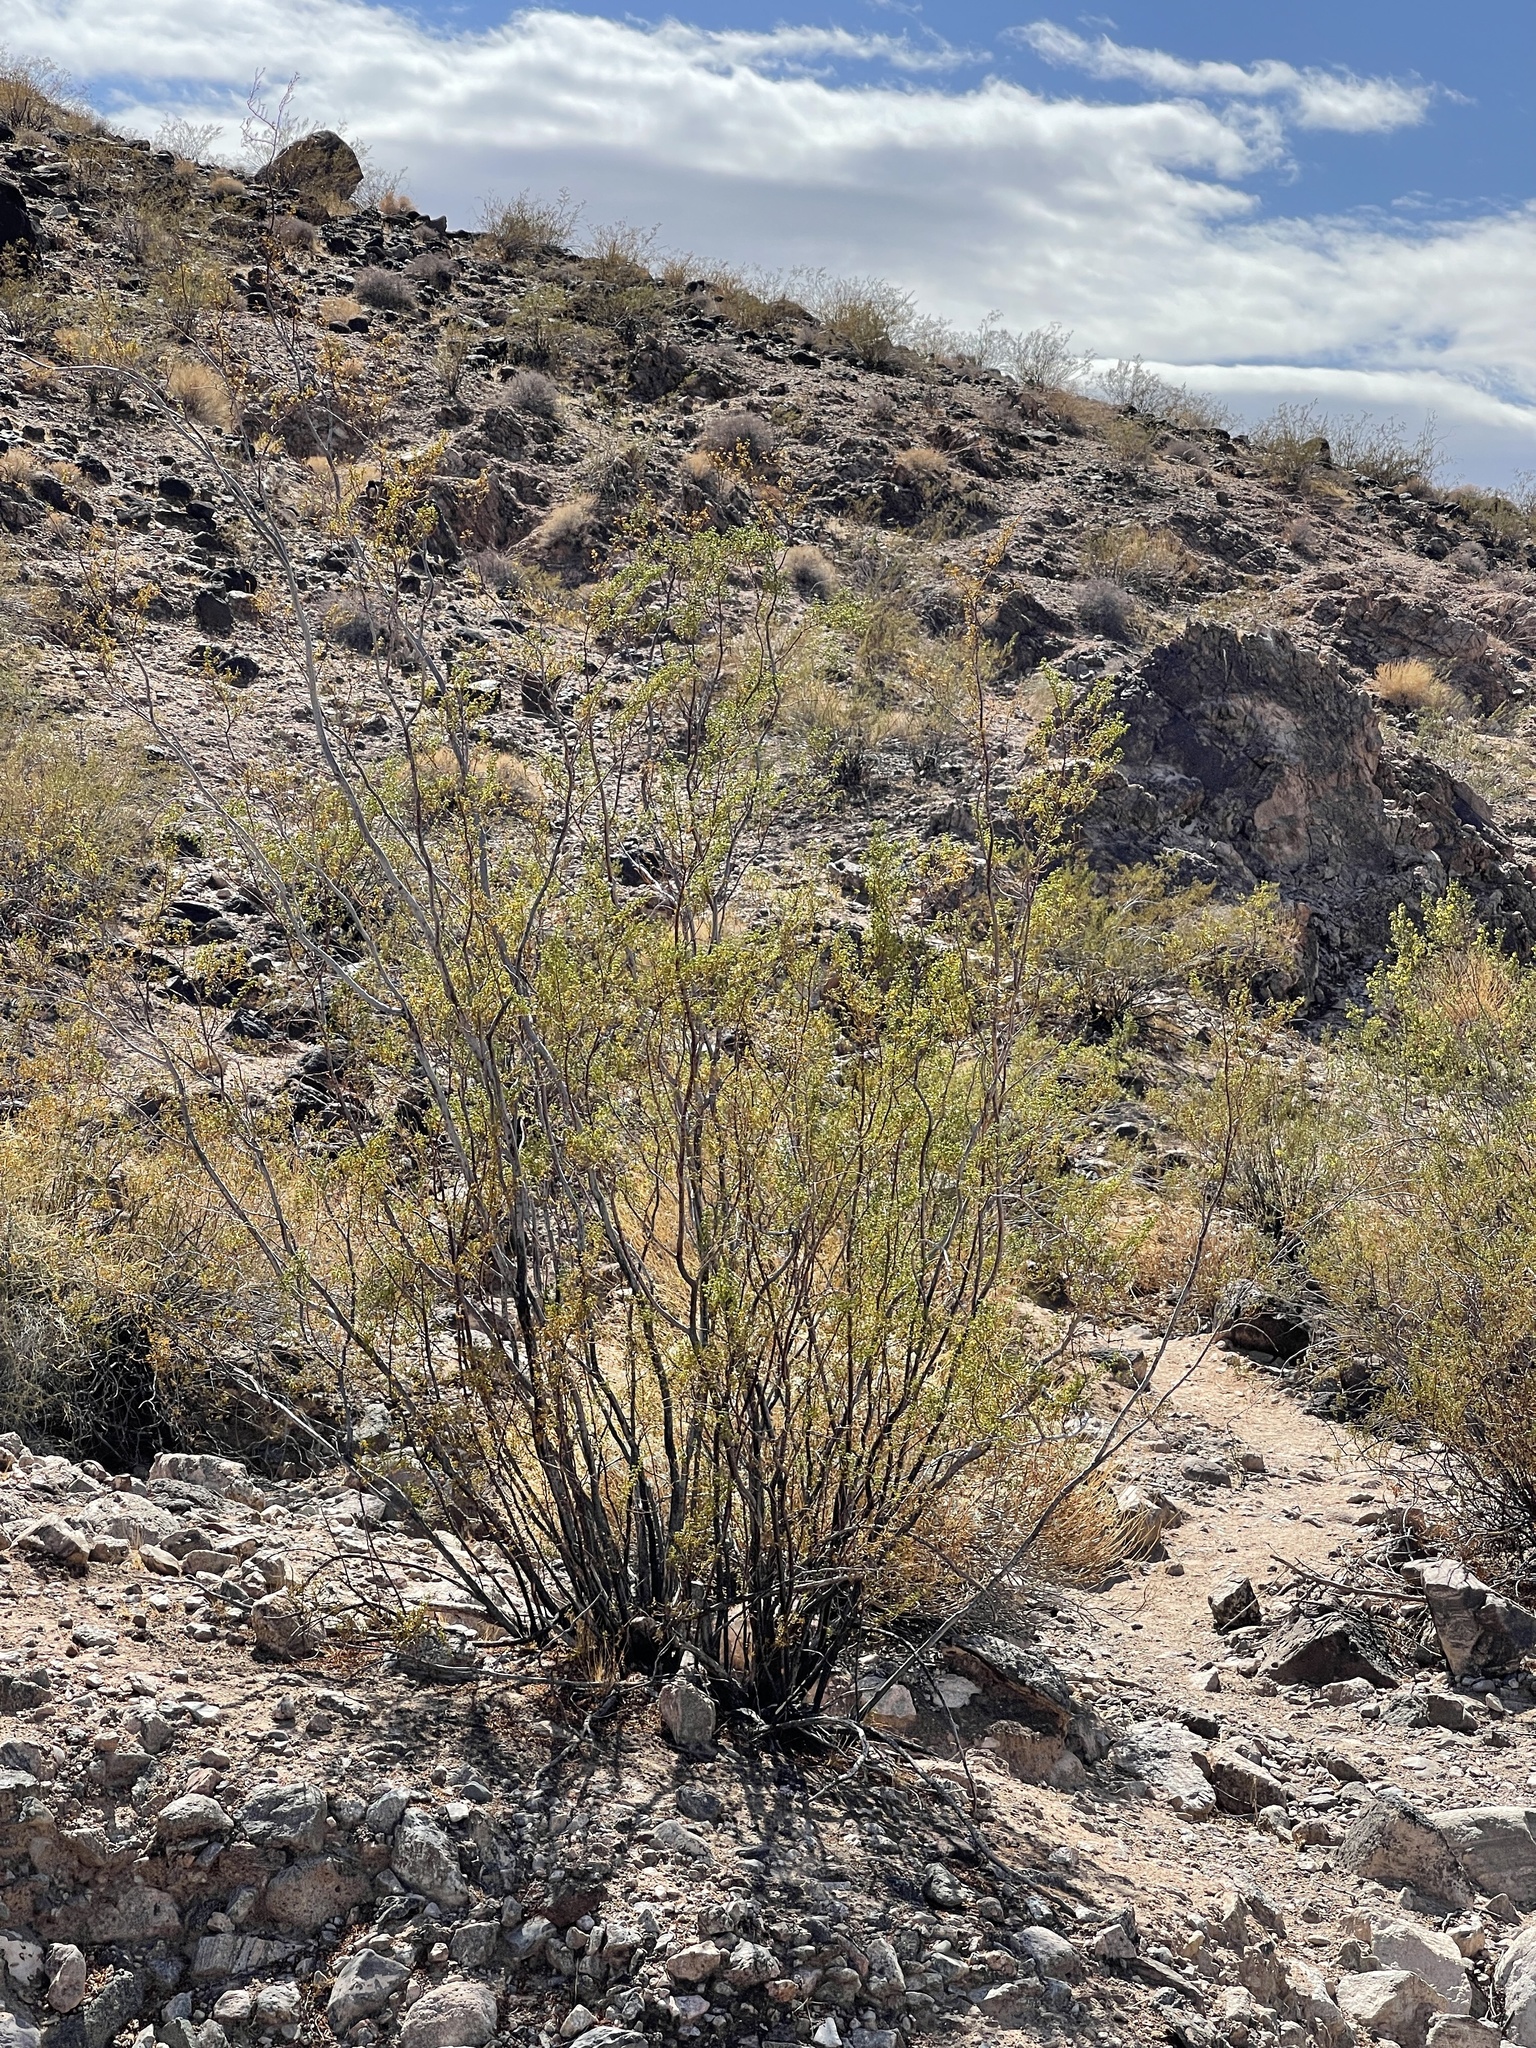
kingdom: Plantae
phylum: Tracheophyta
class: Magnoliopsida
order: Zygophyllales
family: Zygophyllaceae
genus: Larrea
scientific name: Larrea tridentata
